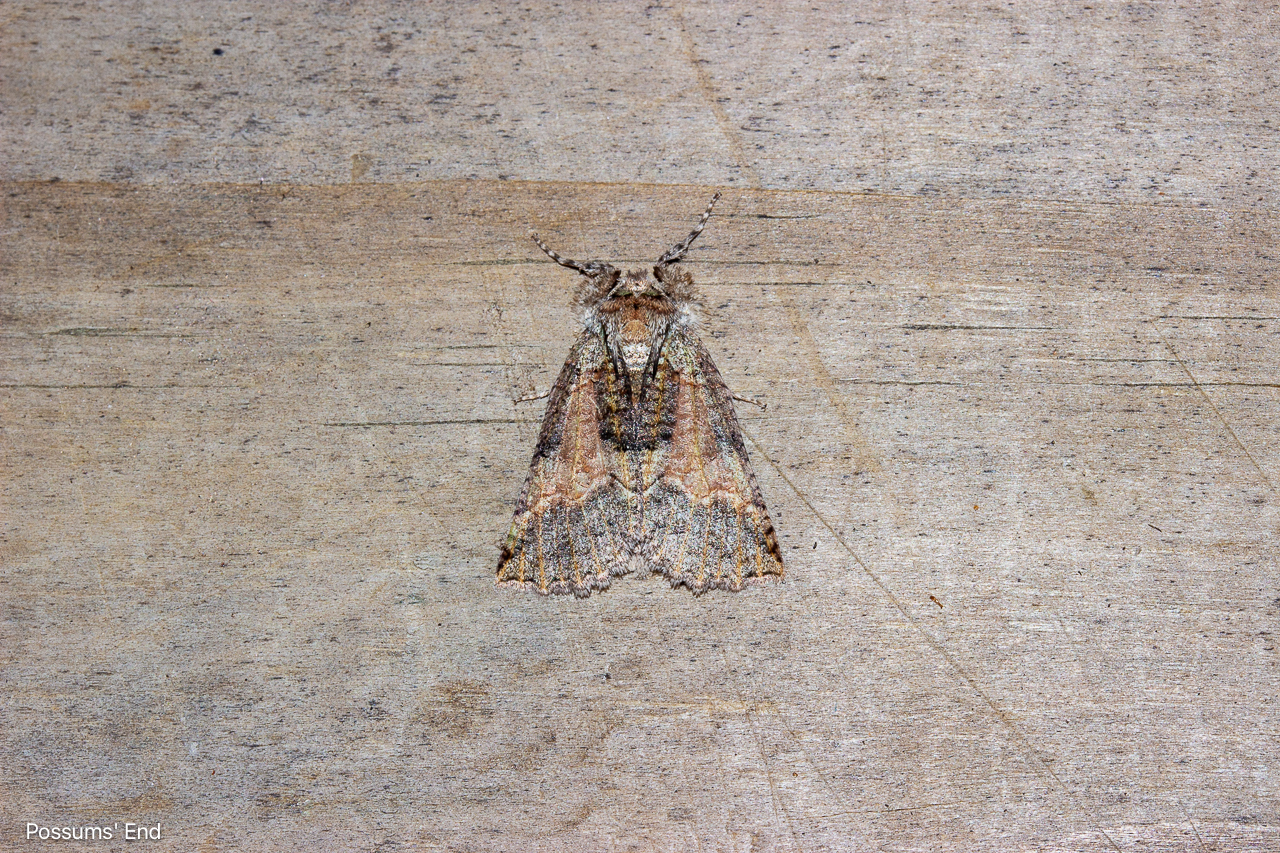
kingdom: Animalia
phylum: Arthropoda
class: Insecta
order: Lepidoptera
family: Geometridae
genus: Declana
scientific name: Declana floccosa
